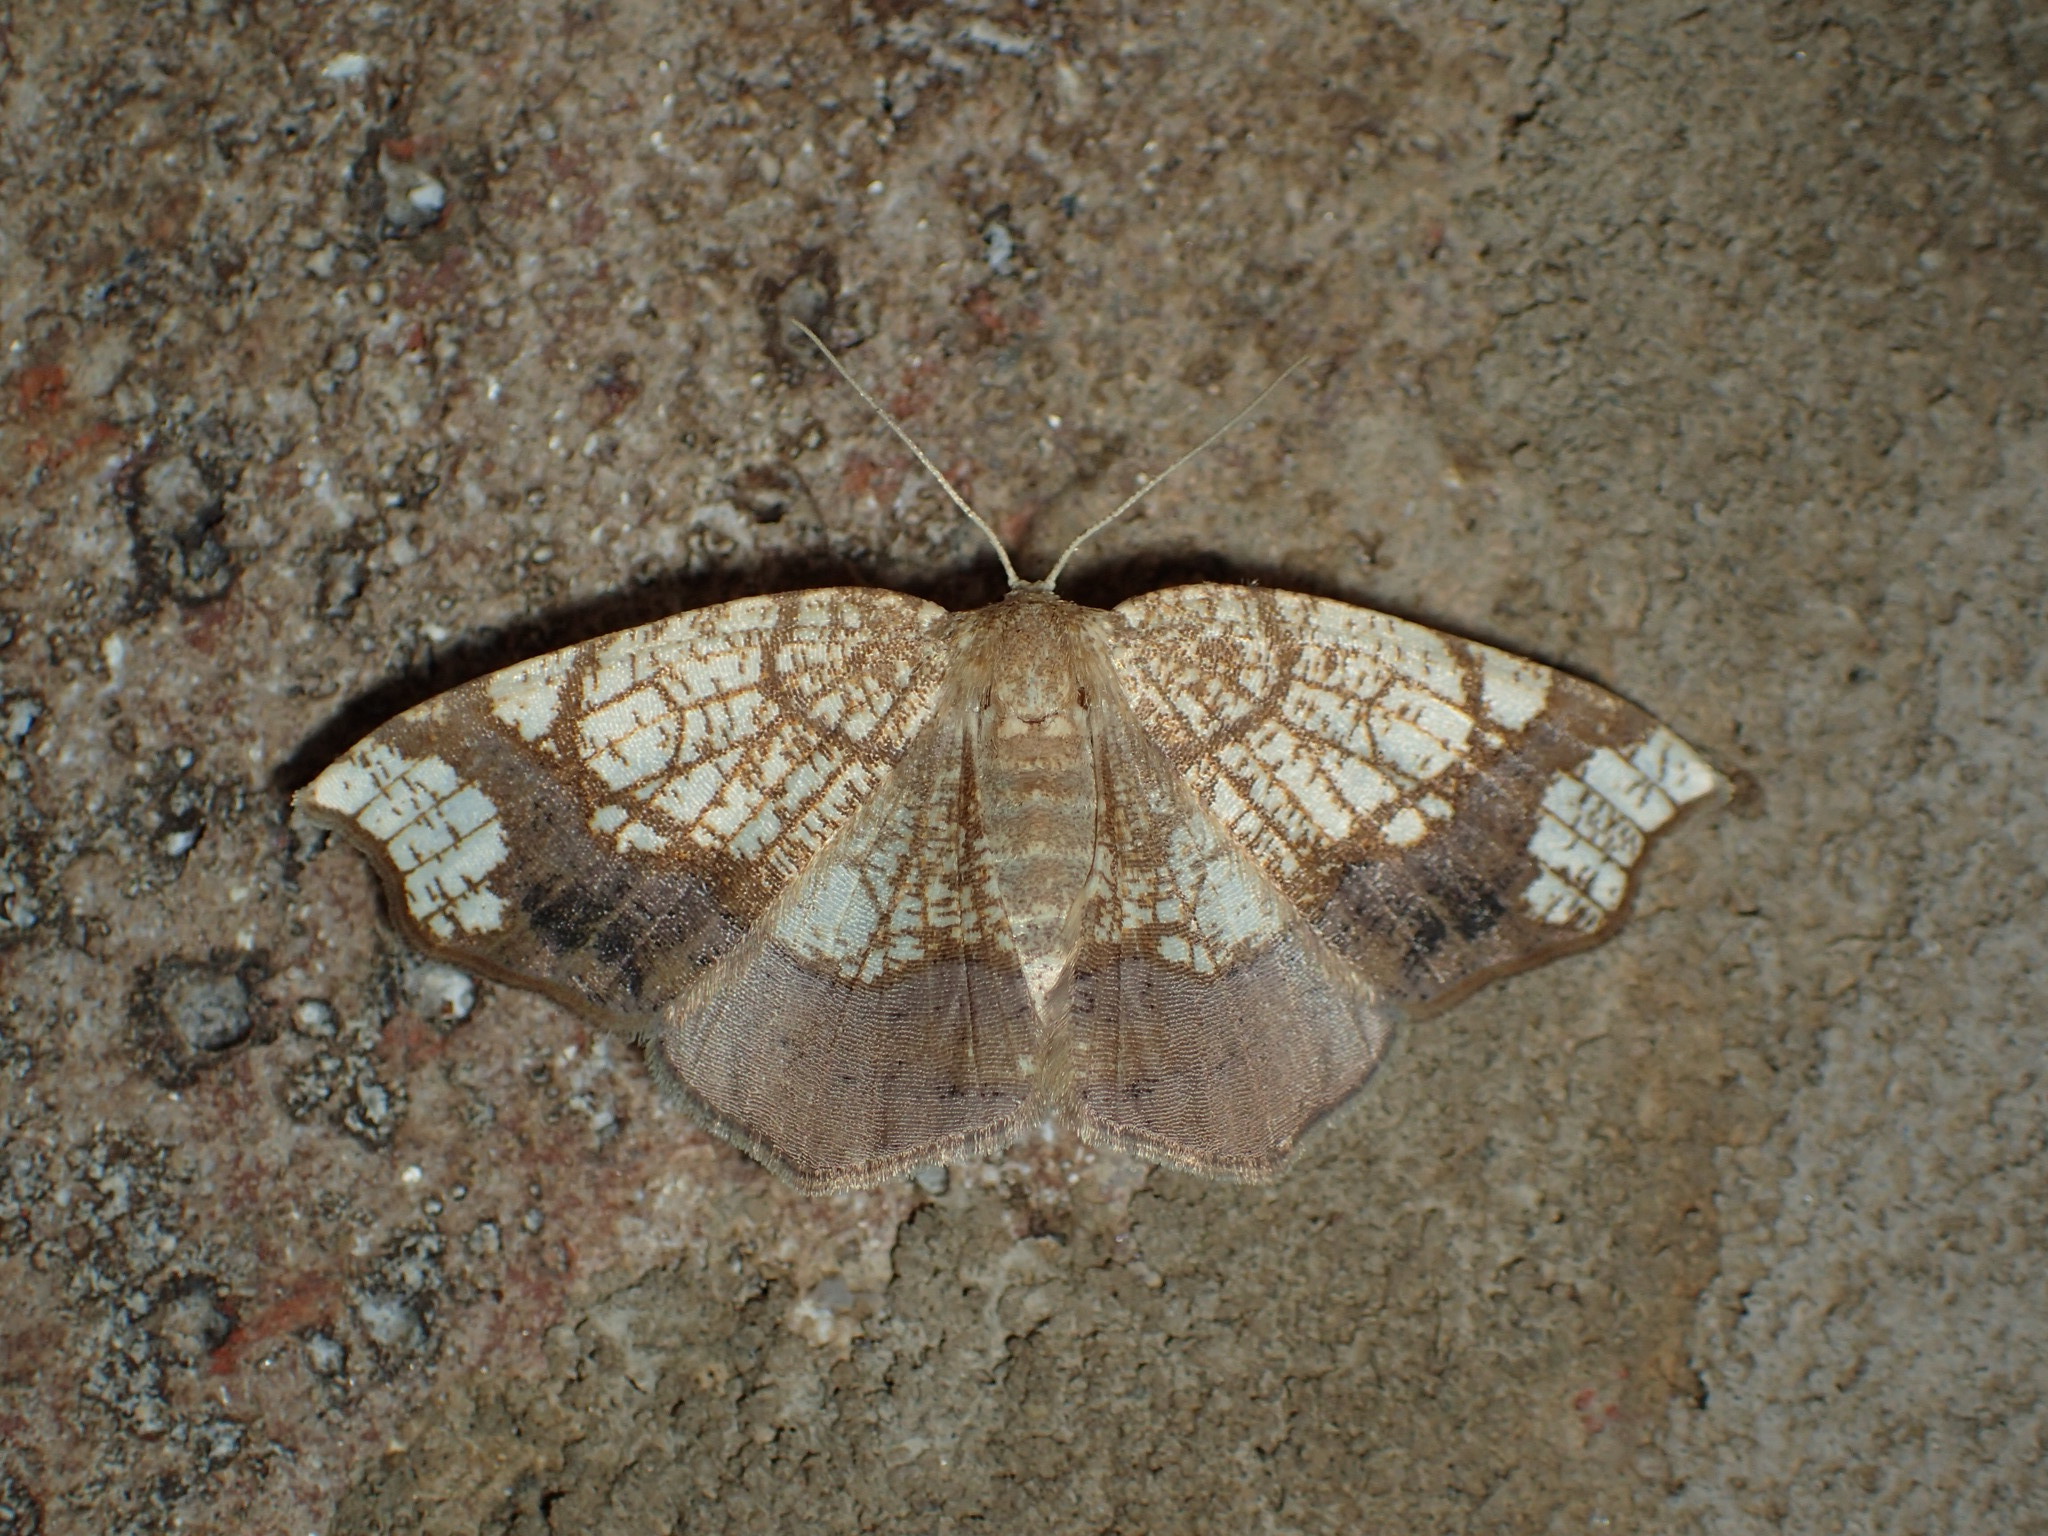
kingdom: Animalia
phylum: Arthropoda
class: Insecta
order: Lepidoptera
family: Geometridae
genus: Nematocampa
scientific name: Nematocampa resistaria
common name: Horned spanworm moth
